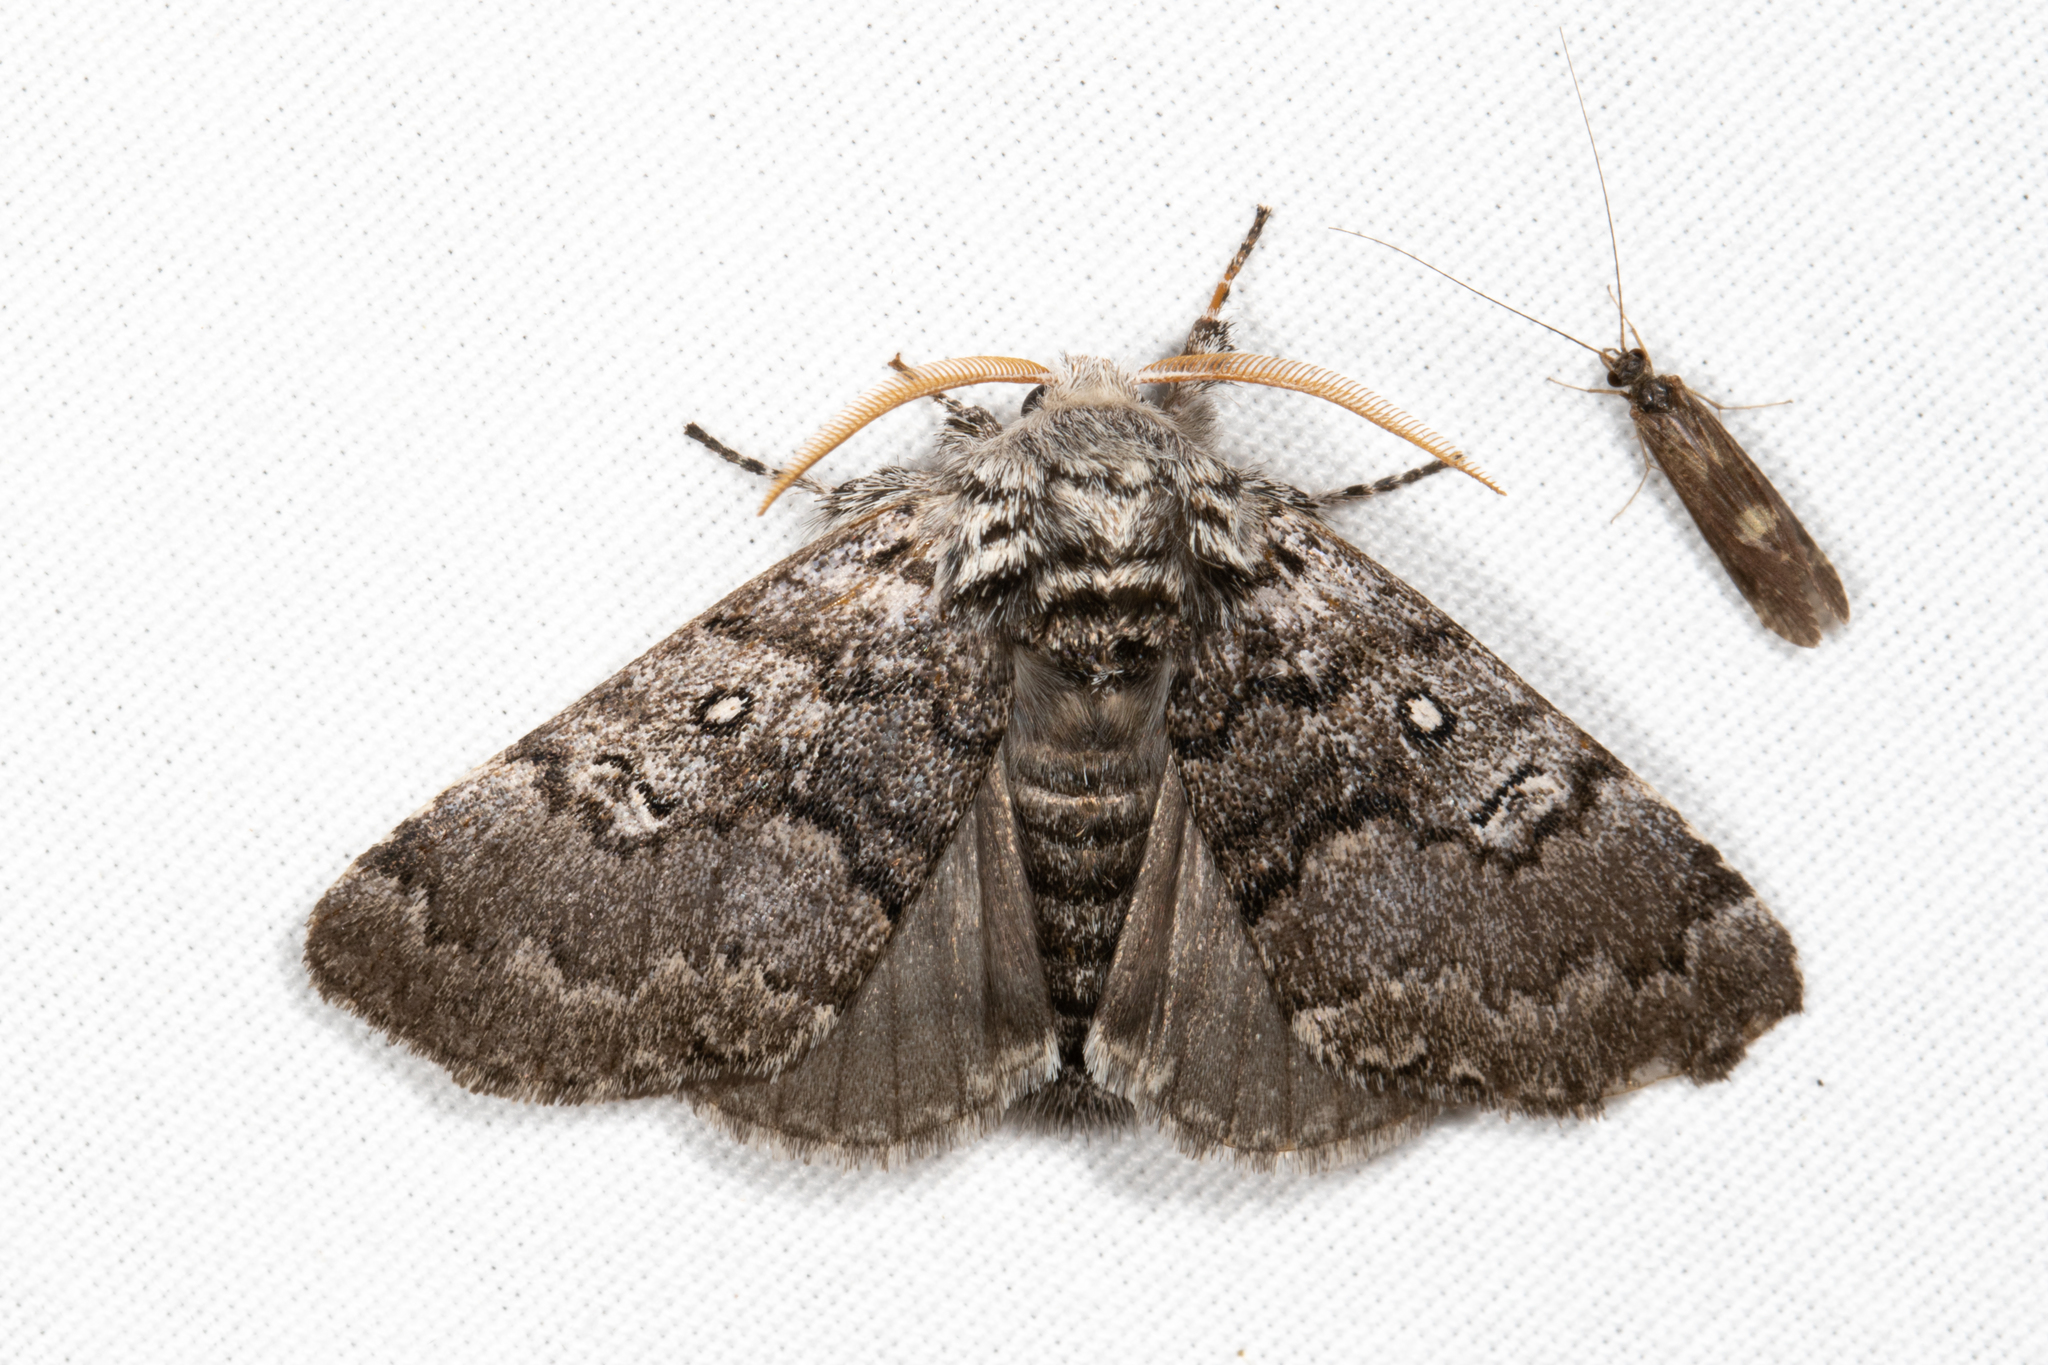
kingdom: Animalia
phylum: Arthropoda
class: Insecta
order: Lepidoptera
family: Noctuidae
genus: Colocasia
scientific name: Colocasia propinquilinea
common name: Close-banded demas
